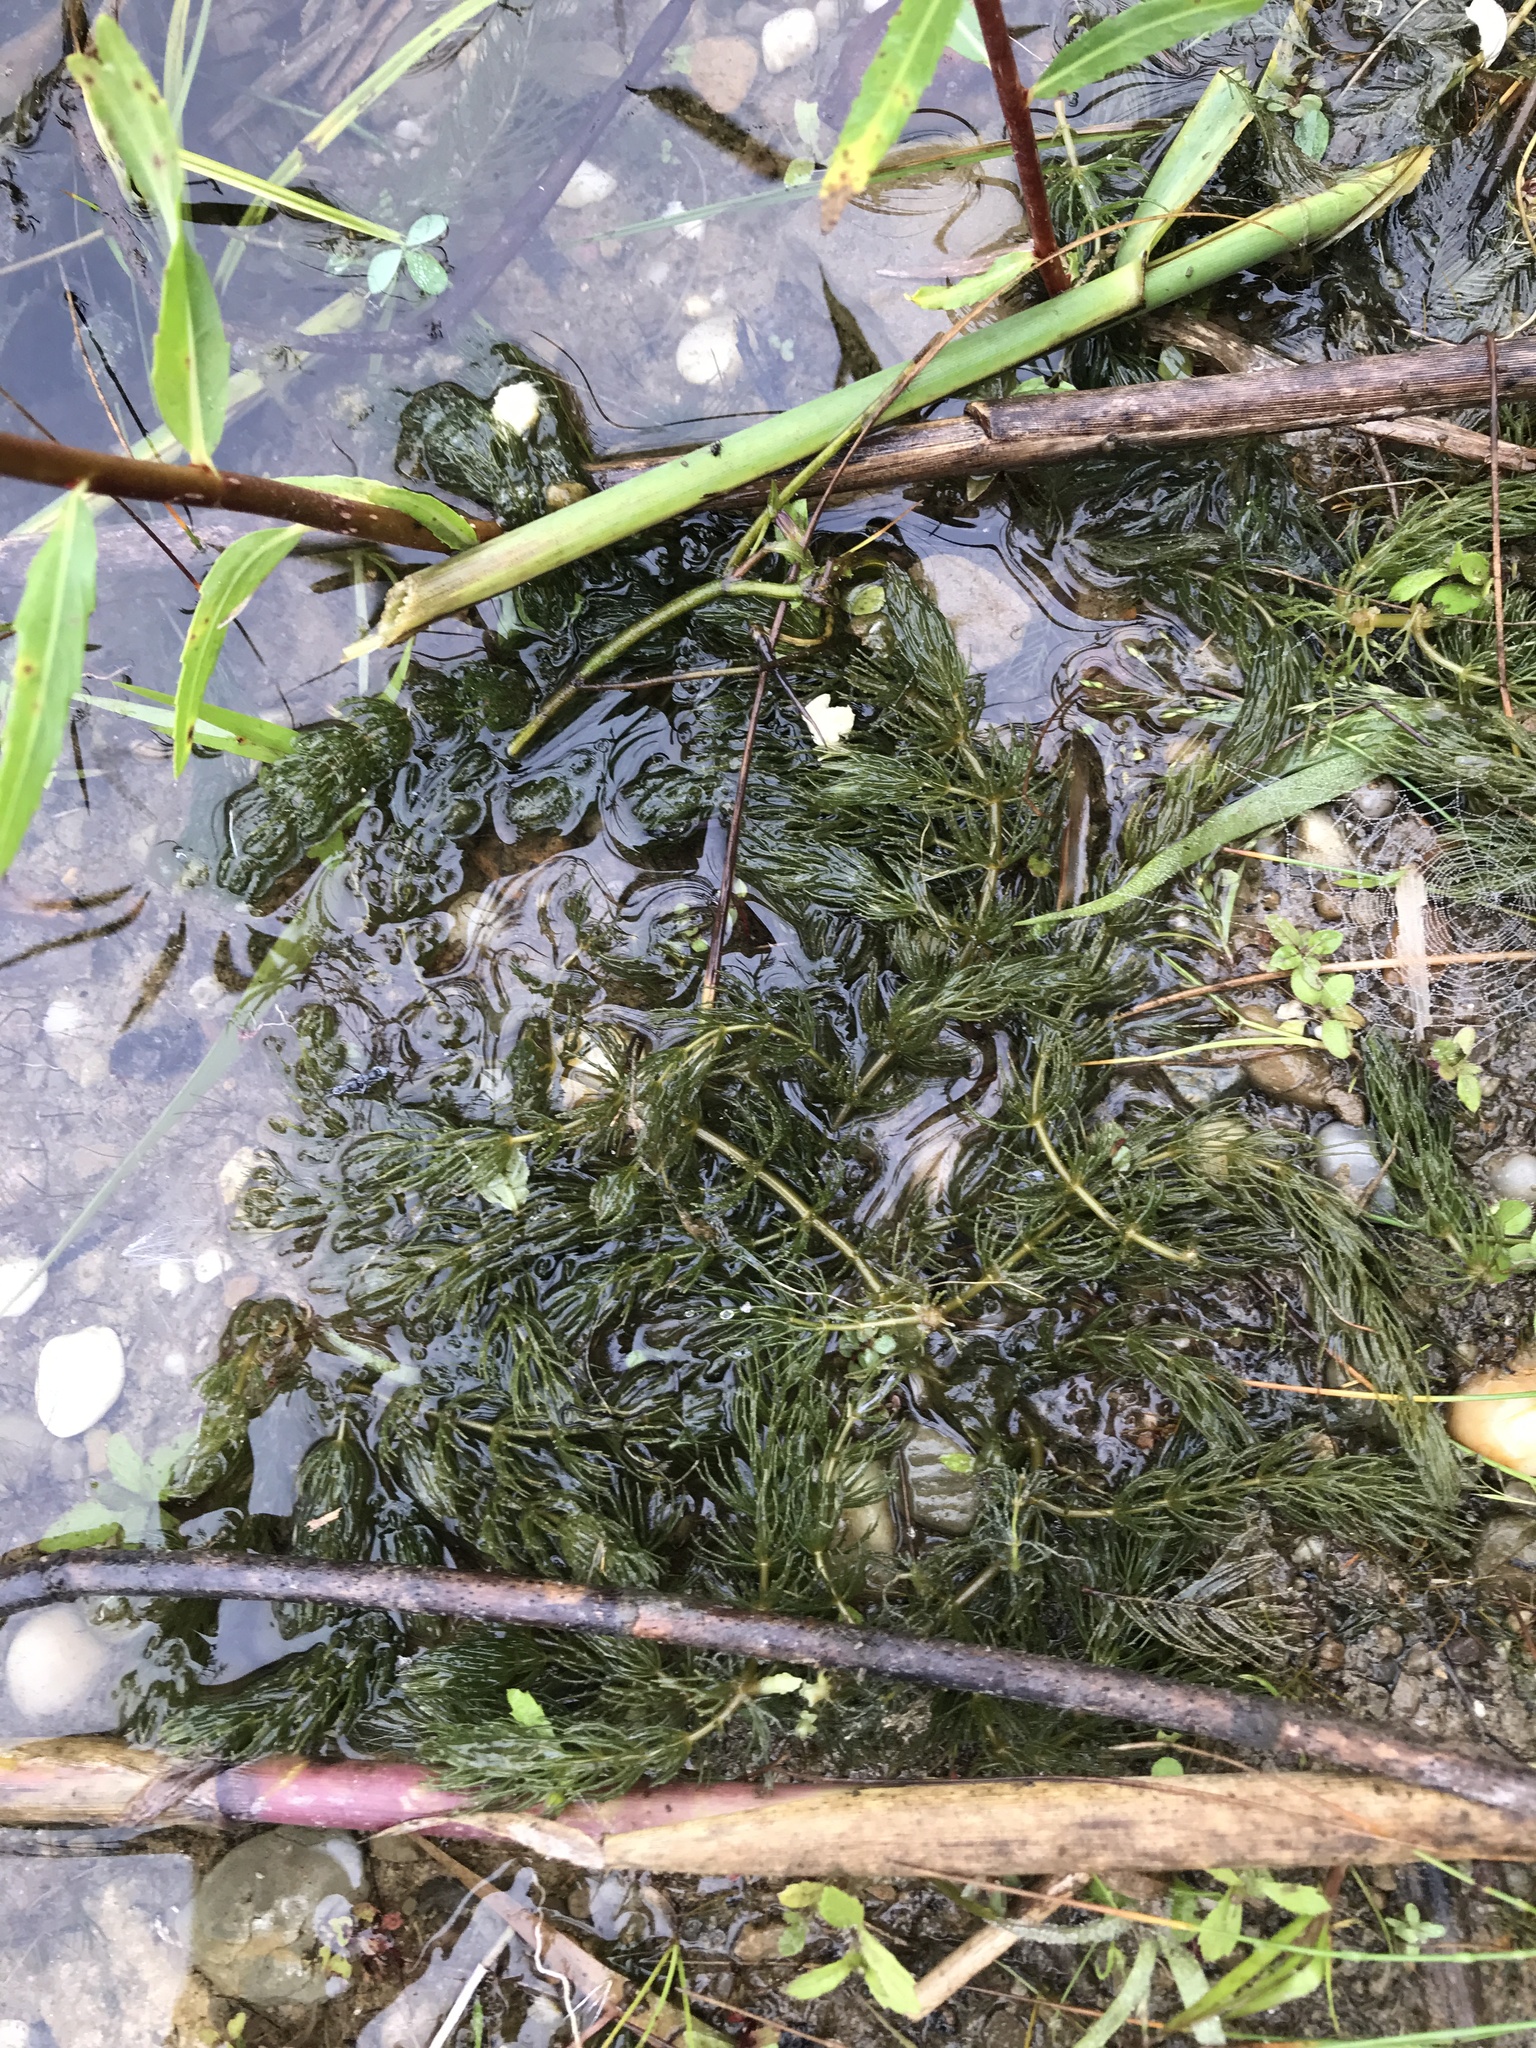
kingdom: Plantae
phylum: Tracheophyta
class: Magnoliopsida
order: Ceratophyllales
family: Ceratophyllaceae
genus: Ceratophyllum
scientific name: Ceratophyllum demersum
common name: Rigid hornwort
